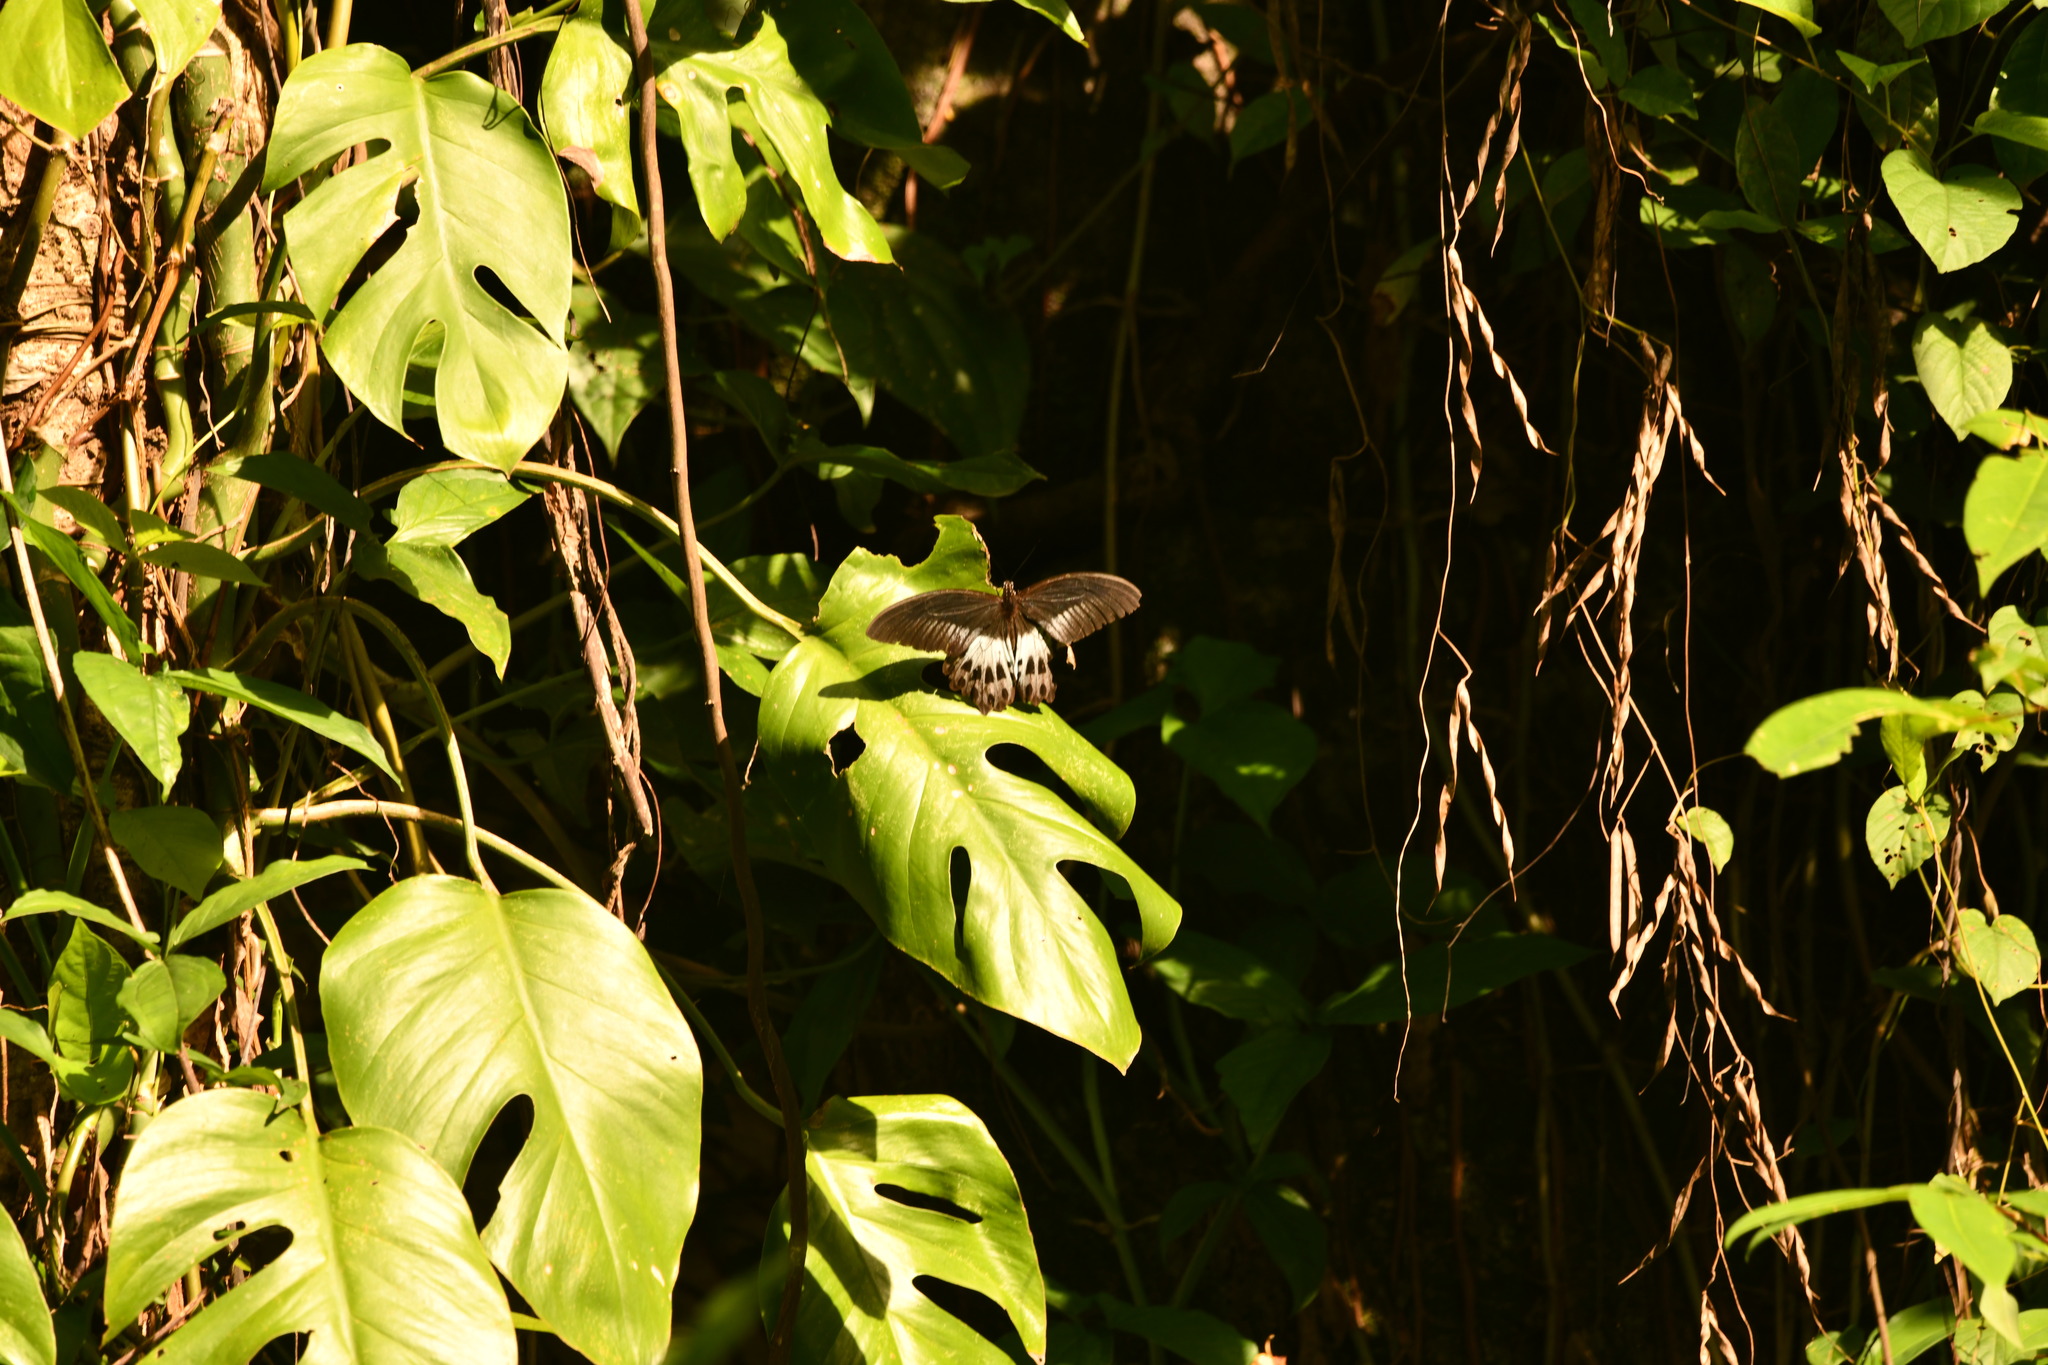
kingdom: Animalia
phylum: Arthropoda
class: Insecta
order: Lepidoptera
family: Papilionidae
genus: Papilio
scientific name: Papilio memnon
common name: Great mormon
